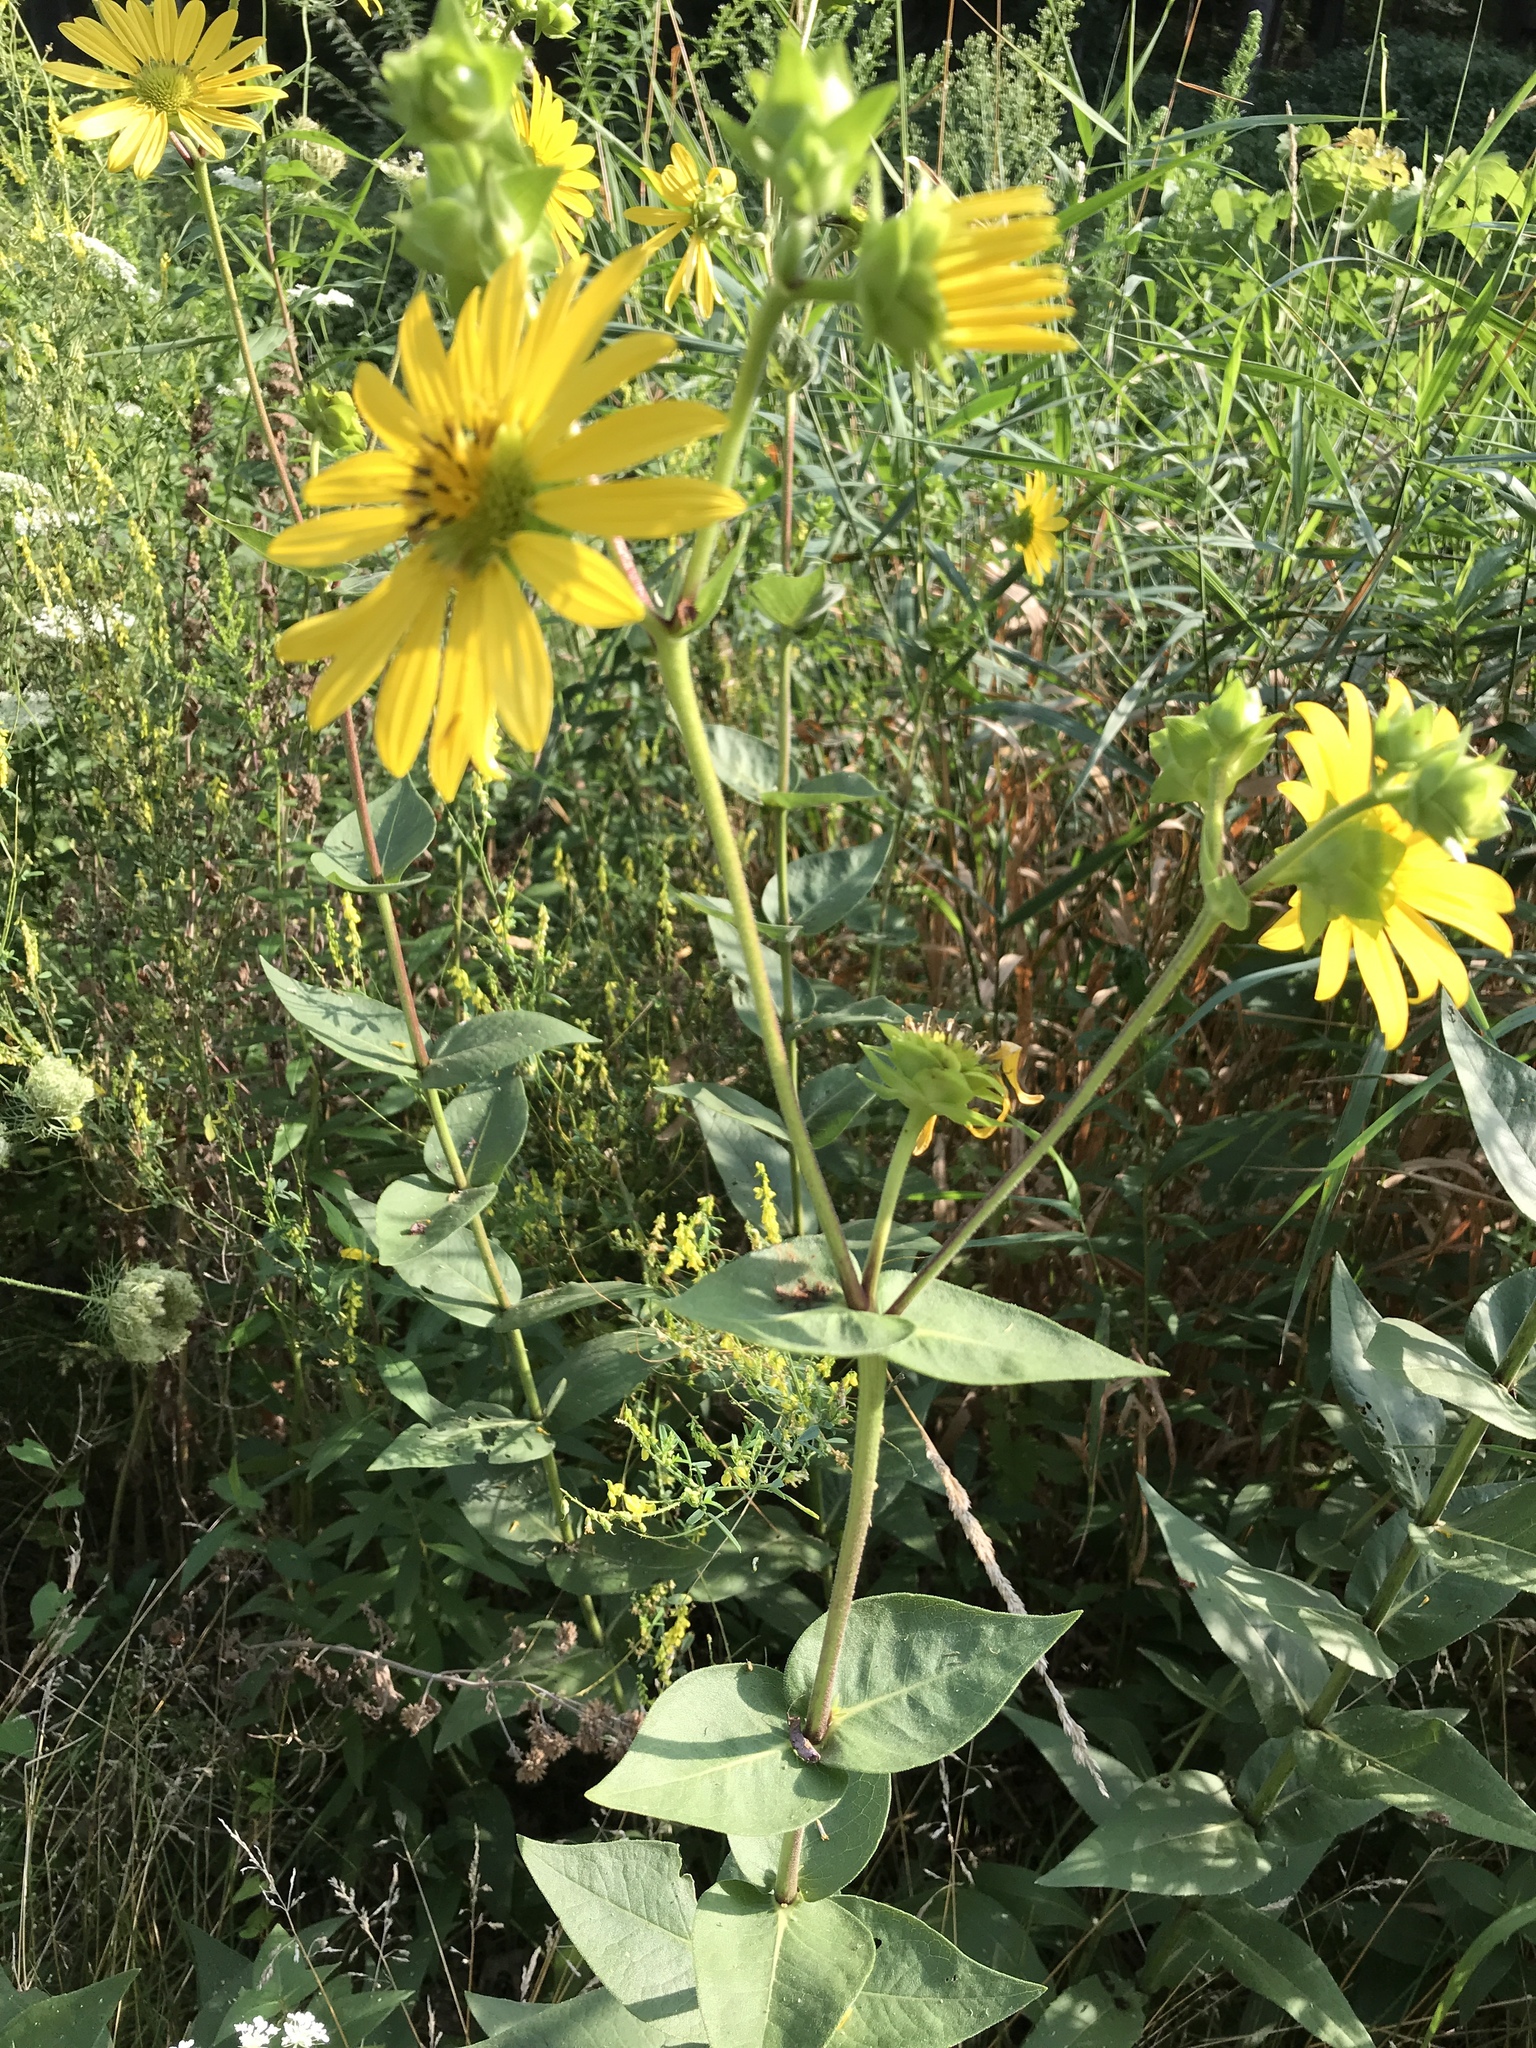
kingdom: Plantae
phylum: Tracheophyta
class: Magnoliopsida
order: Asterales
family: Asteraceae
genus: Silphium
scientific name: Silphium integrifolium
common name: Whole-leaf rosinweed
